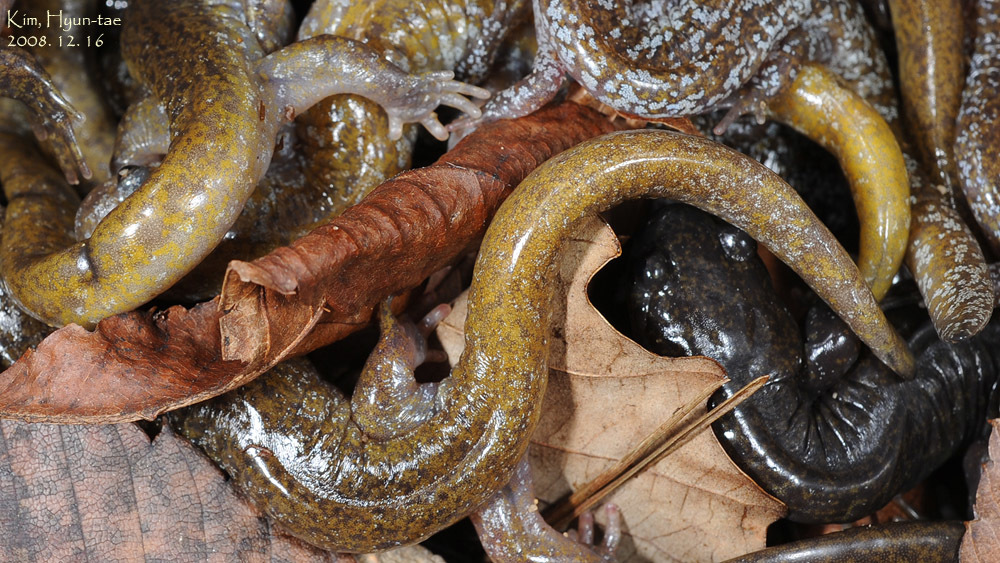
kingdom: Animalia
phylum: Chordata
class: Amphibia
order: Caudata
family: Hynobiidae
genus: Hynobius
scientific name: Hynobius leechii
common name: Gensan salamander
